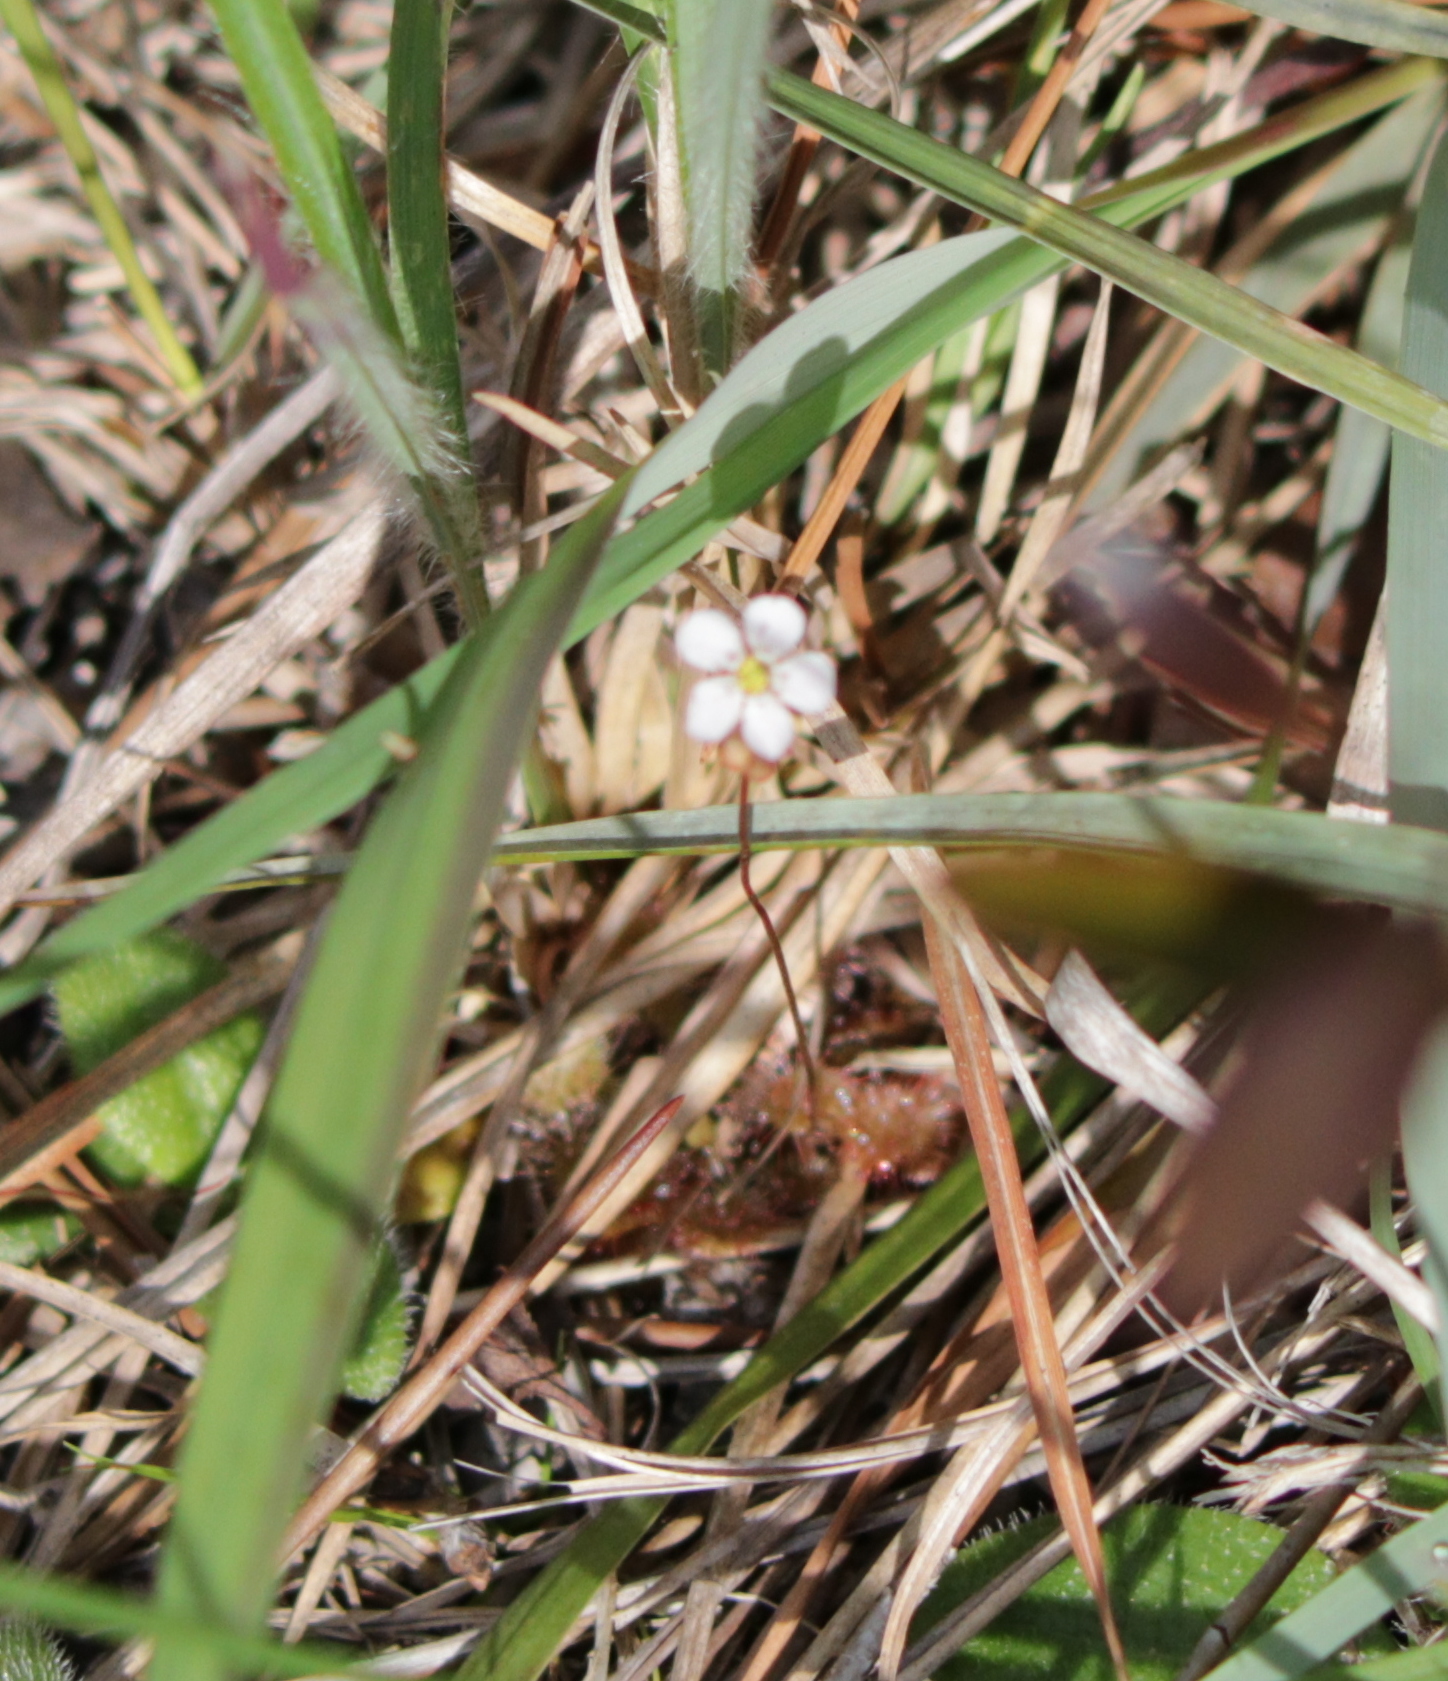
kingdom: Plantae
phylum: Tracheophyta
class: Magnoliopsida
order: Caryophyllales
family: Droseraceae
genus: Drosera
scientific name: Drosera capillaris
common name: Pink sundew
